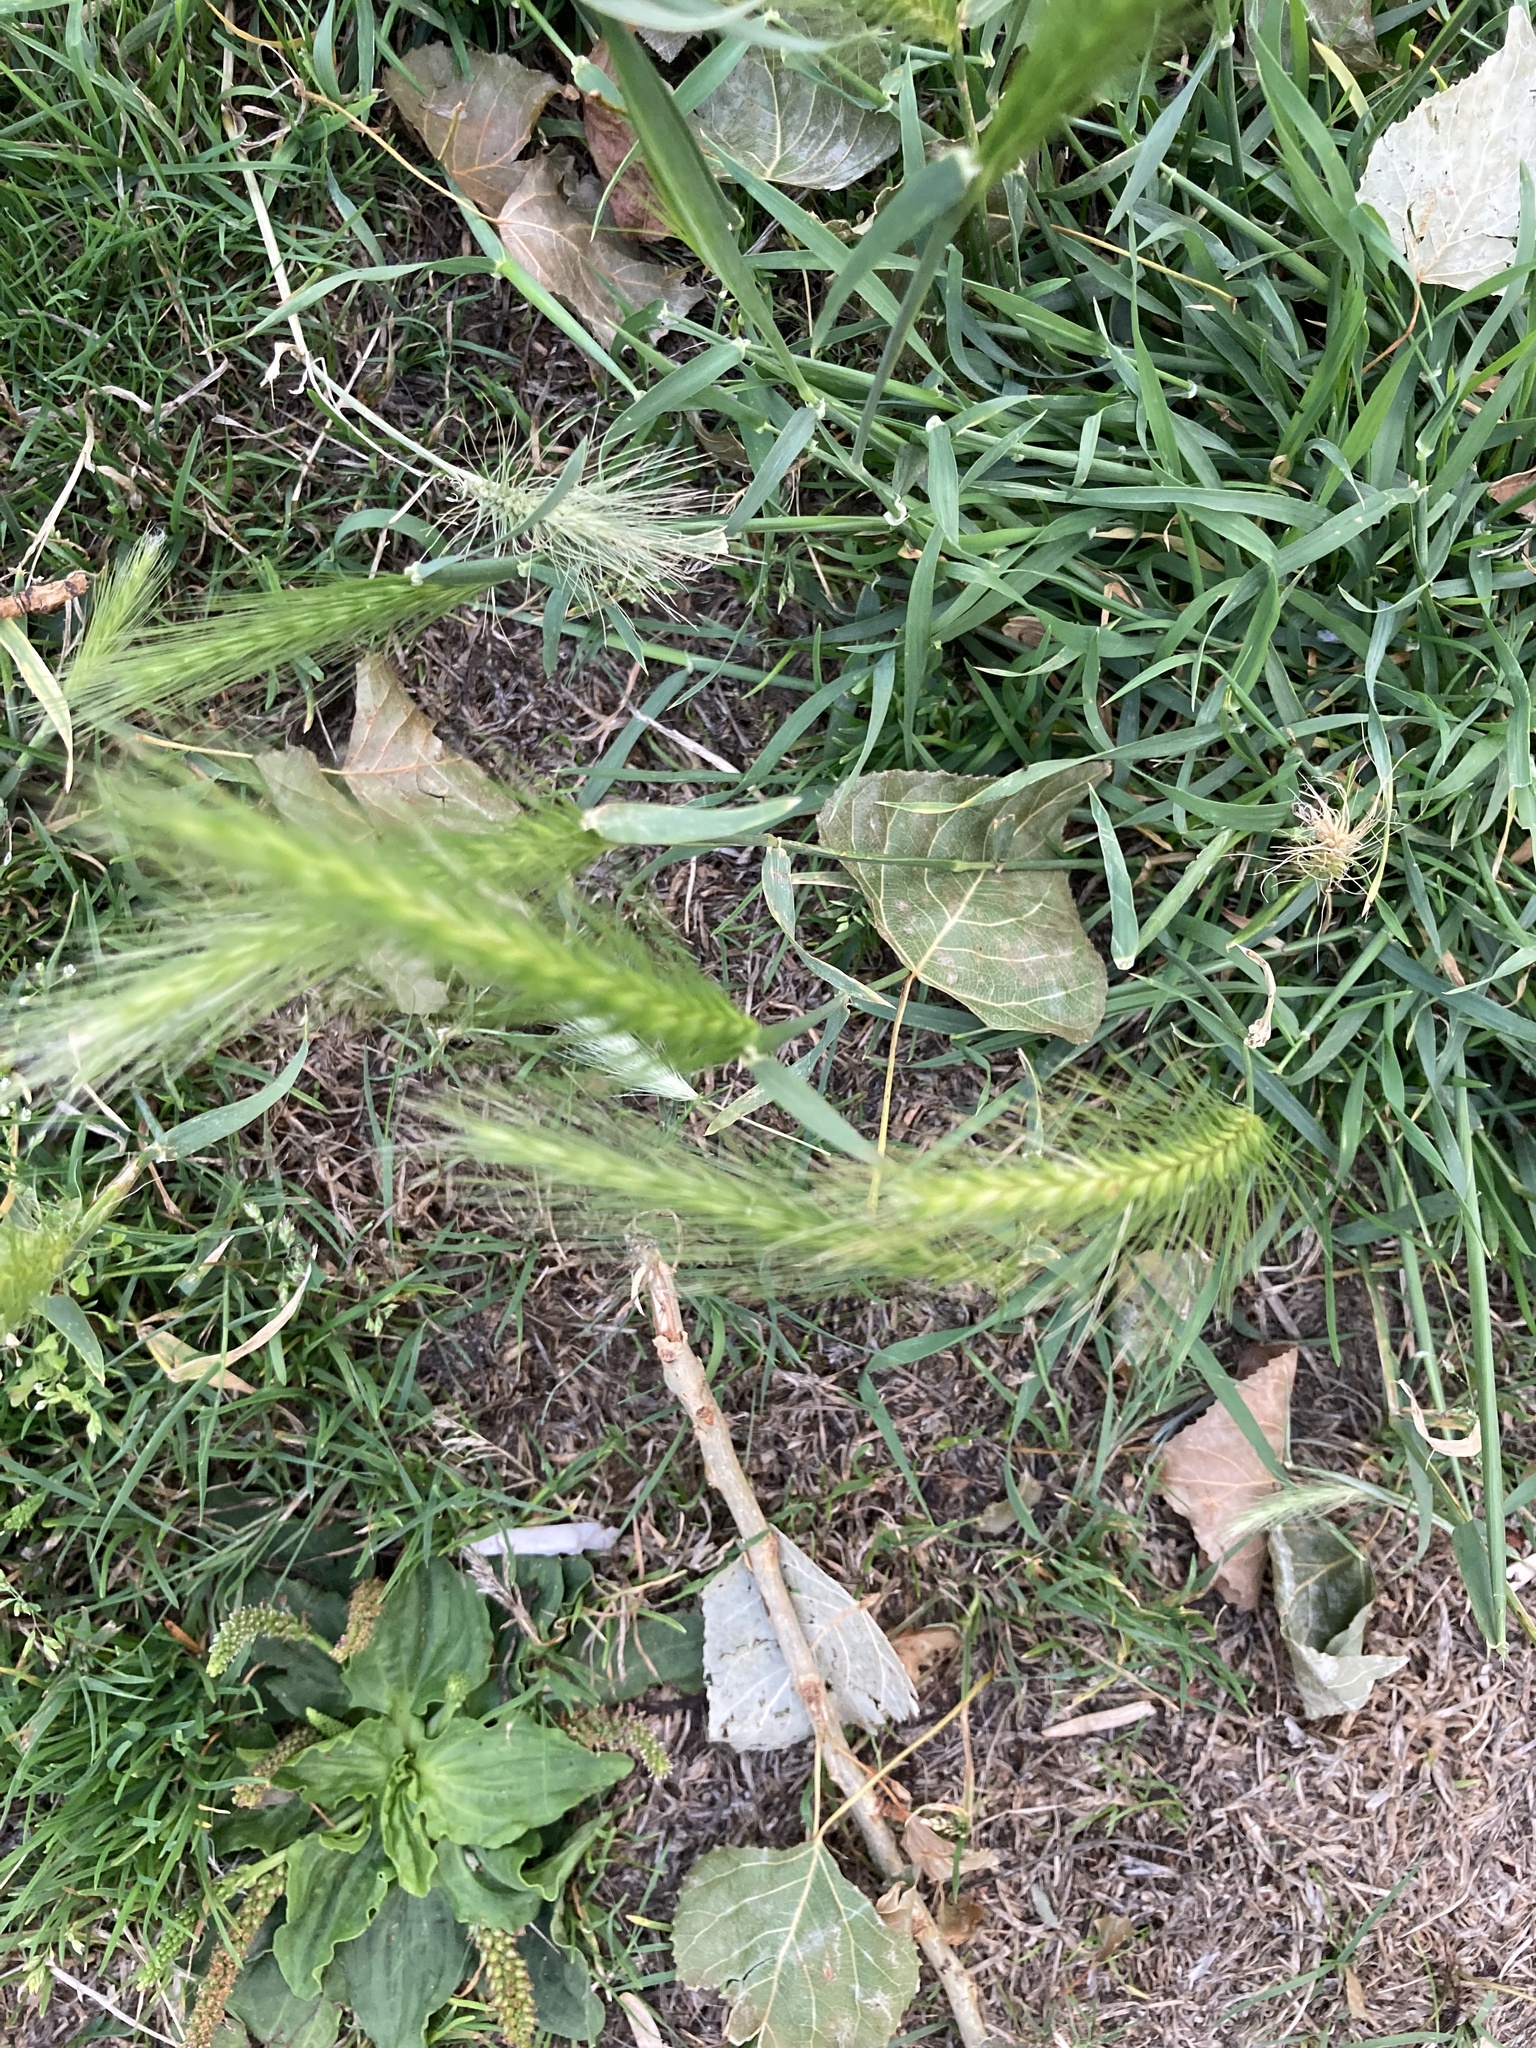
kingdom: Plantae
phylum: Tracheophyta
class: Liliopsida
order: Poales
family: Poaceae
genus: Hordeum
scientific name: Hordeum murinum
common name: Wall barley
